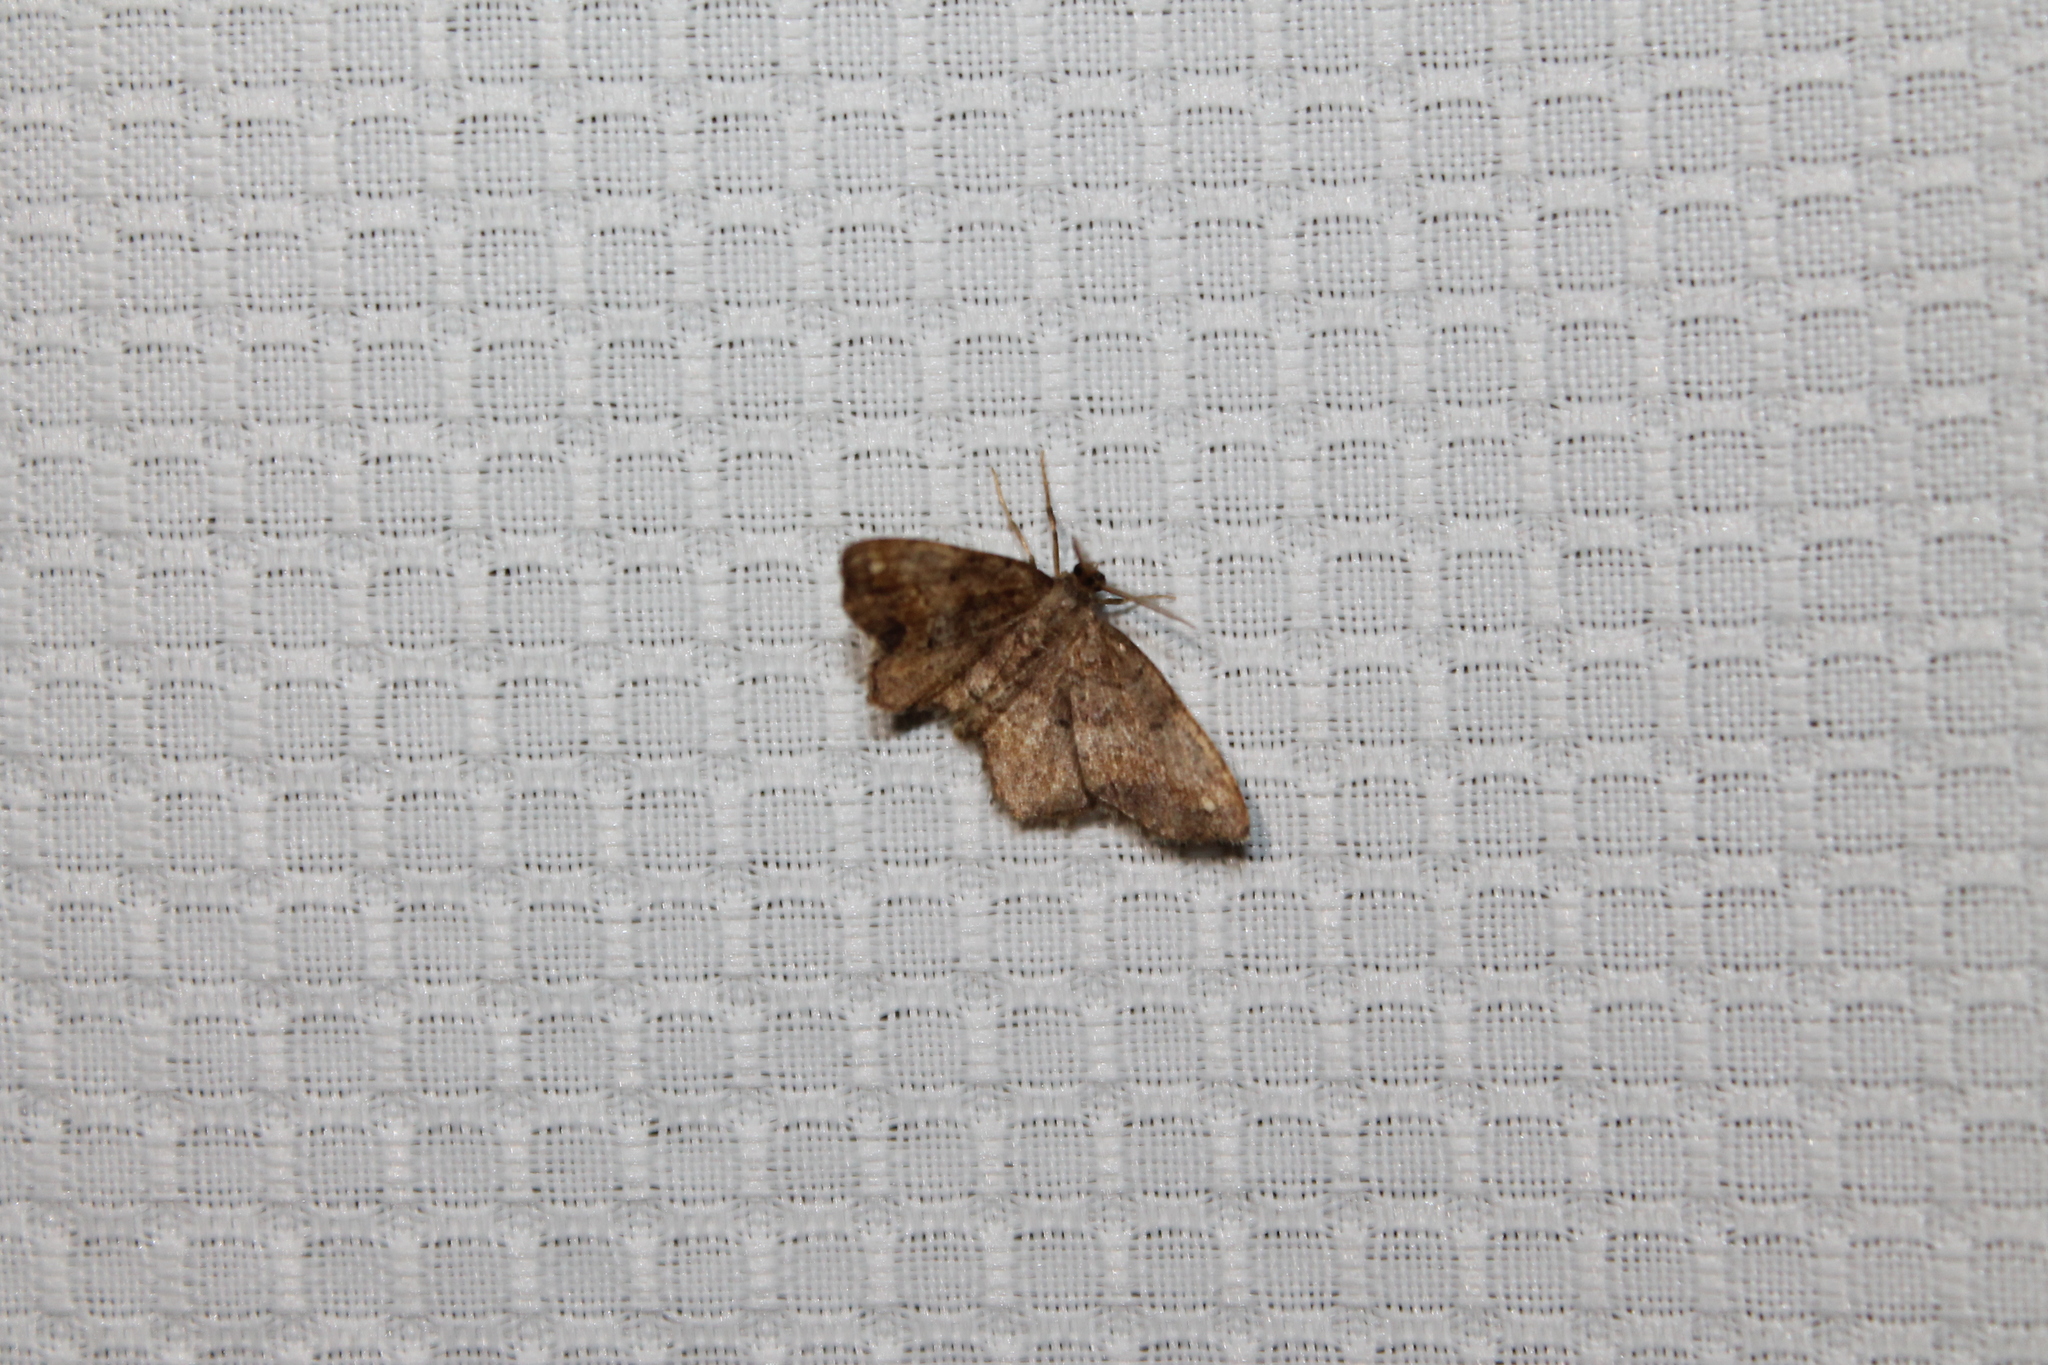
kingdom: Animalia
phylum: Arthropoda
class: Insecta
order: Lepidoptera
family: Geometridae
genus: Hypagyrtis
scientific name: Hypagyrtis unipunctata
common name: One-spotted variant
